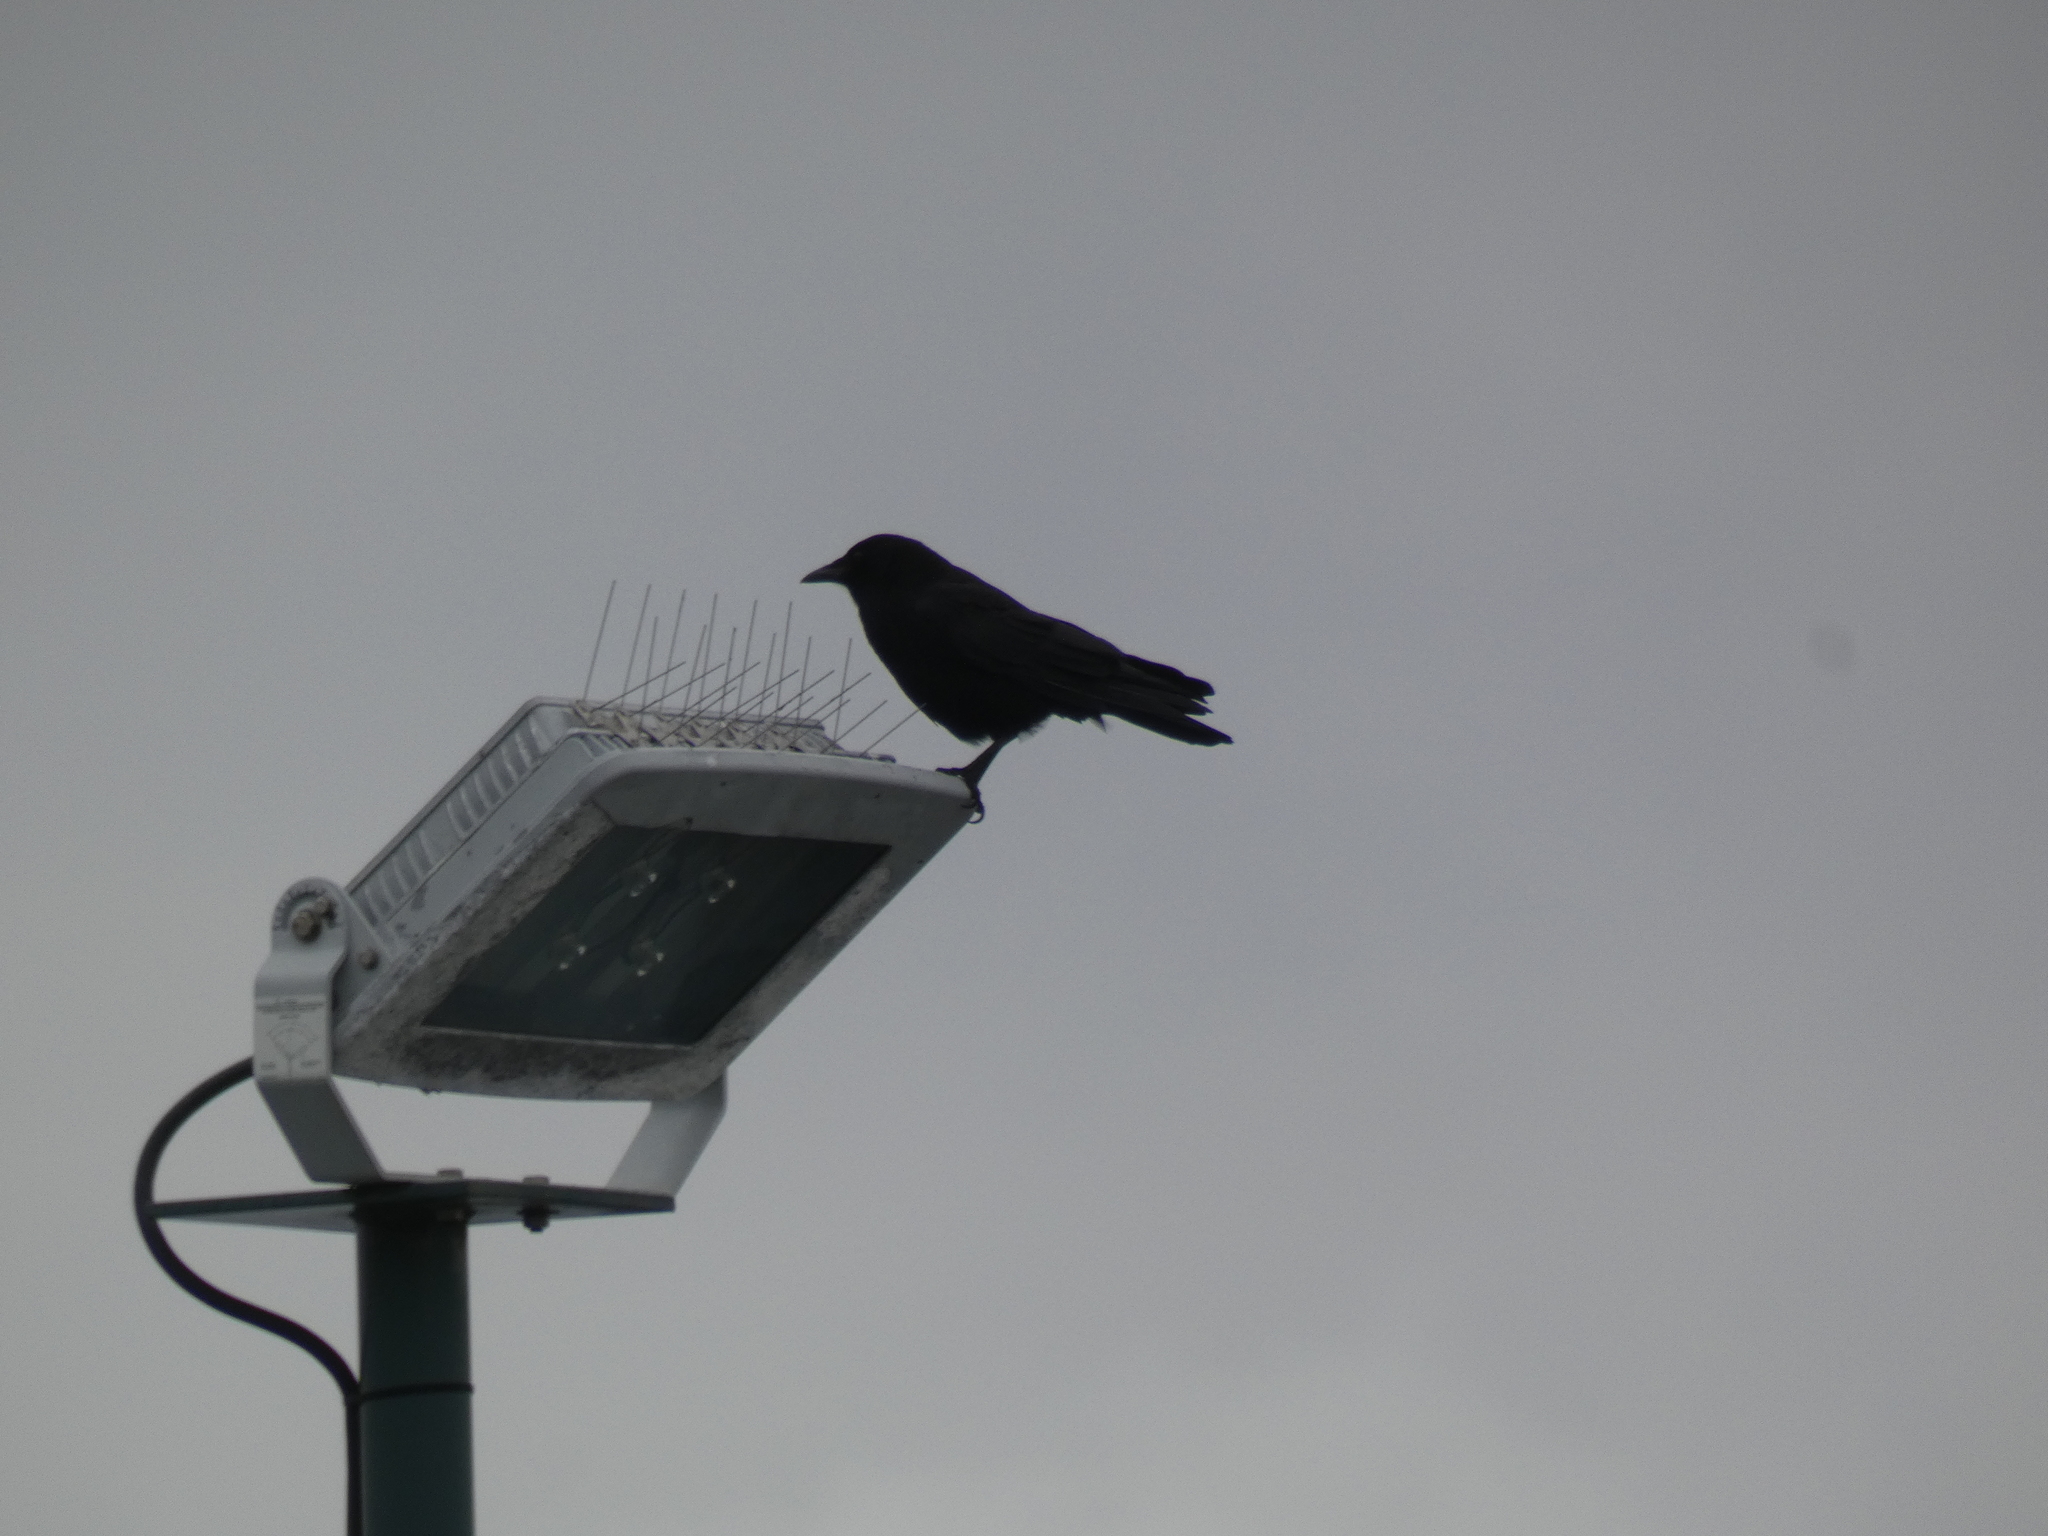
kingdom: Animalia
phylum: Chordata
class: Aves
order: Passeriformes
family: Corvidae
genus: Corvus
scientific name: Corvus brachyrhynchos
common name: American crow
